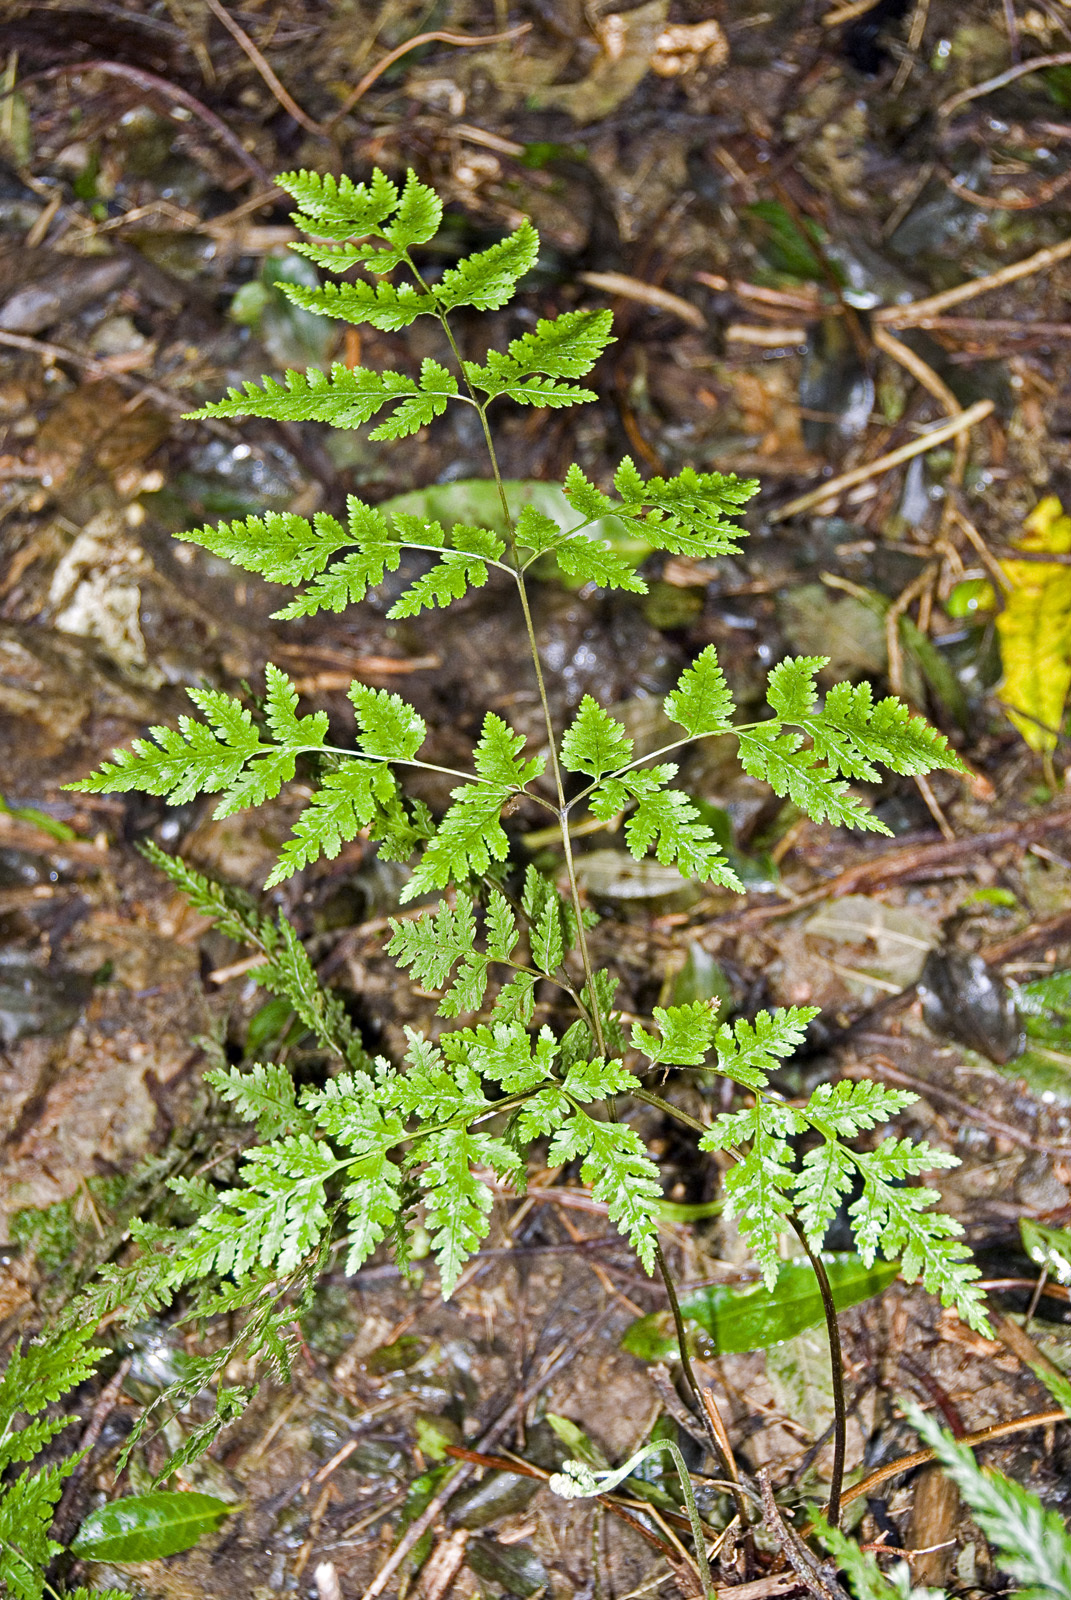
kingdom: Plantae
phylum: Tracheophyta
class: Polypodiopsida
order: Polypodiales
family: Pteridaceae
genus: Pteris
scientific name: Pteris macilenta
